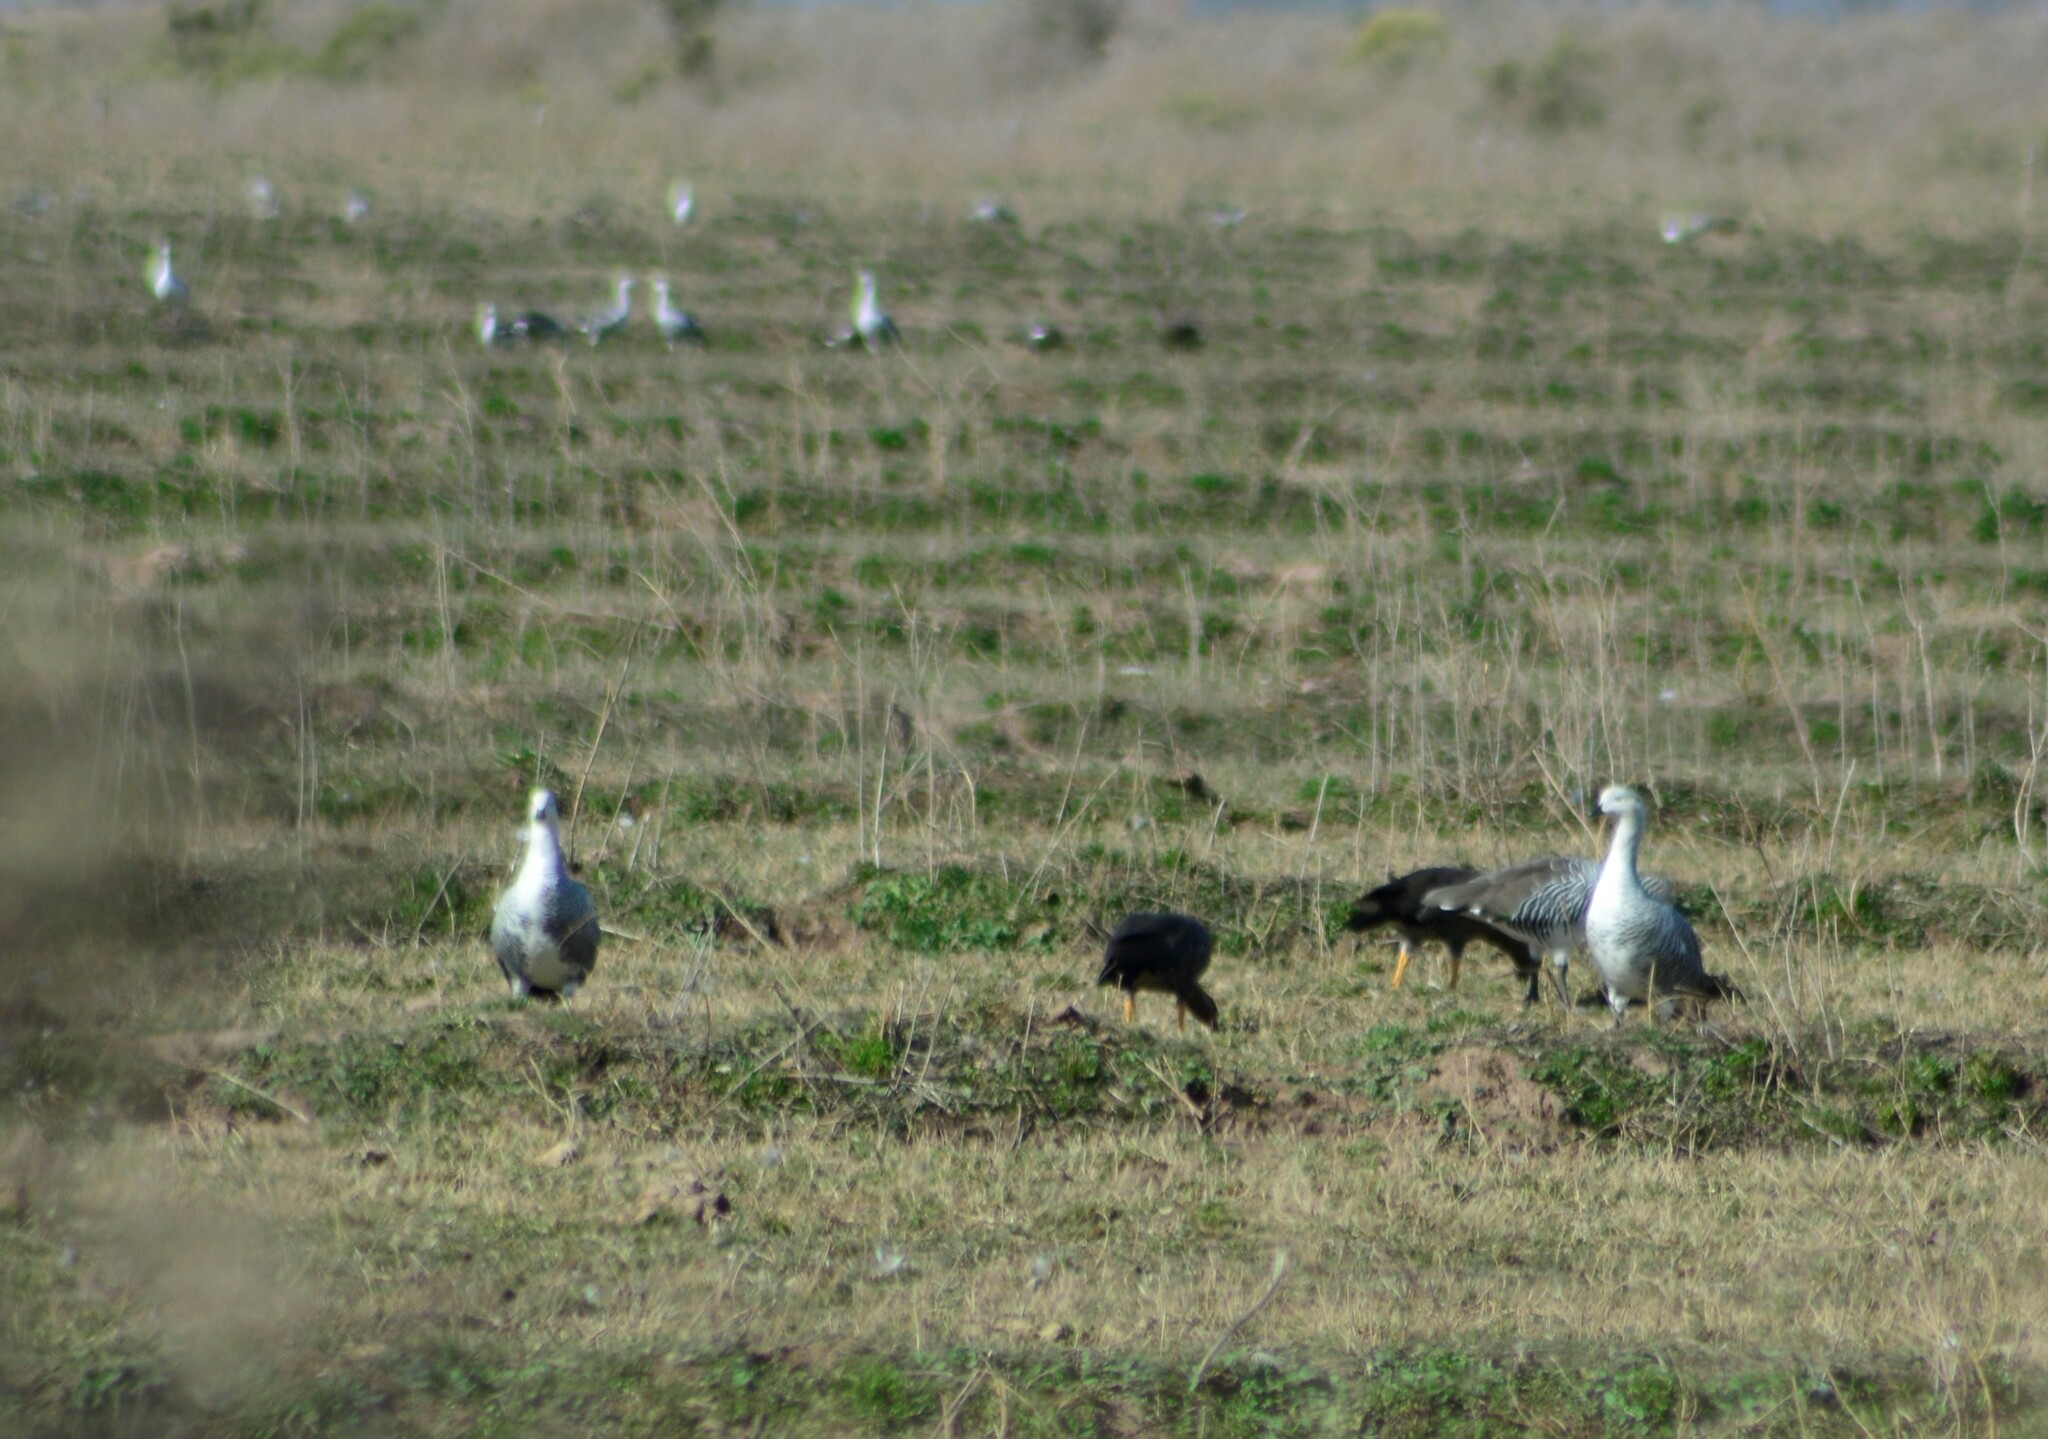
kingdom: Animalia
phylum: Chordata
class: Aves
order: Anseriformes
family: Anatidae
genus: Chloephaga
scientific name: Chloephaga picta
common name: Upland goose
